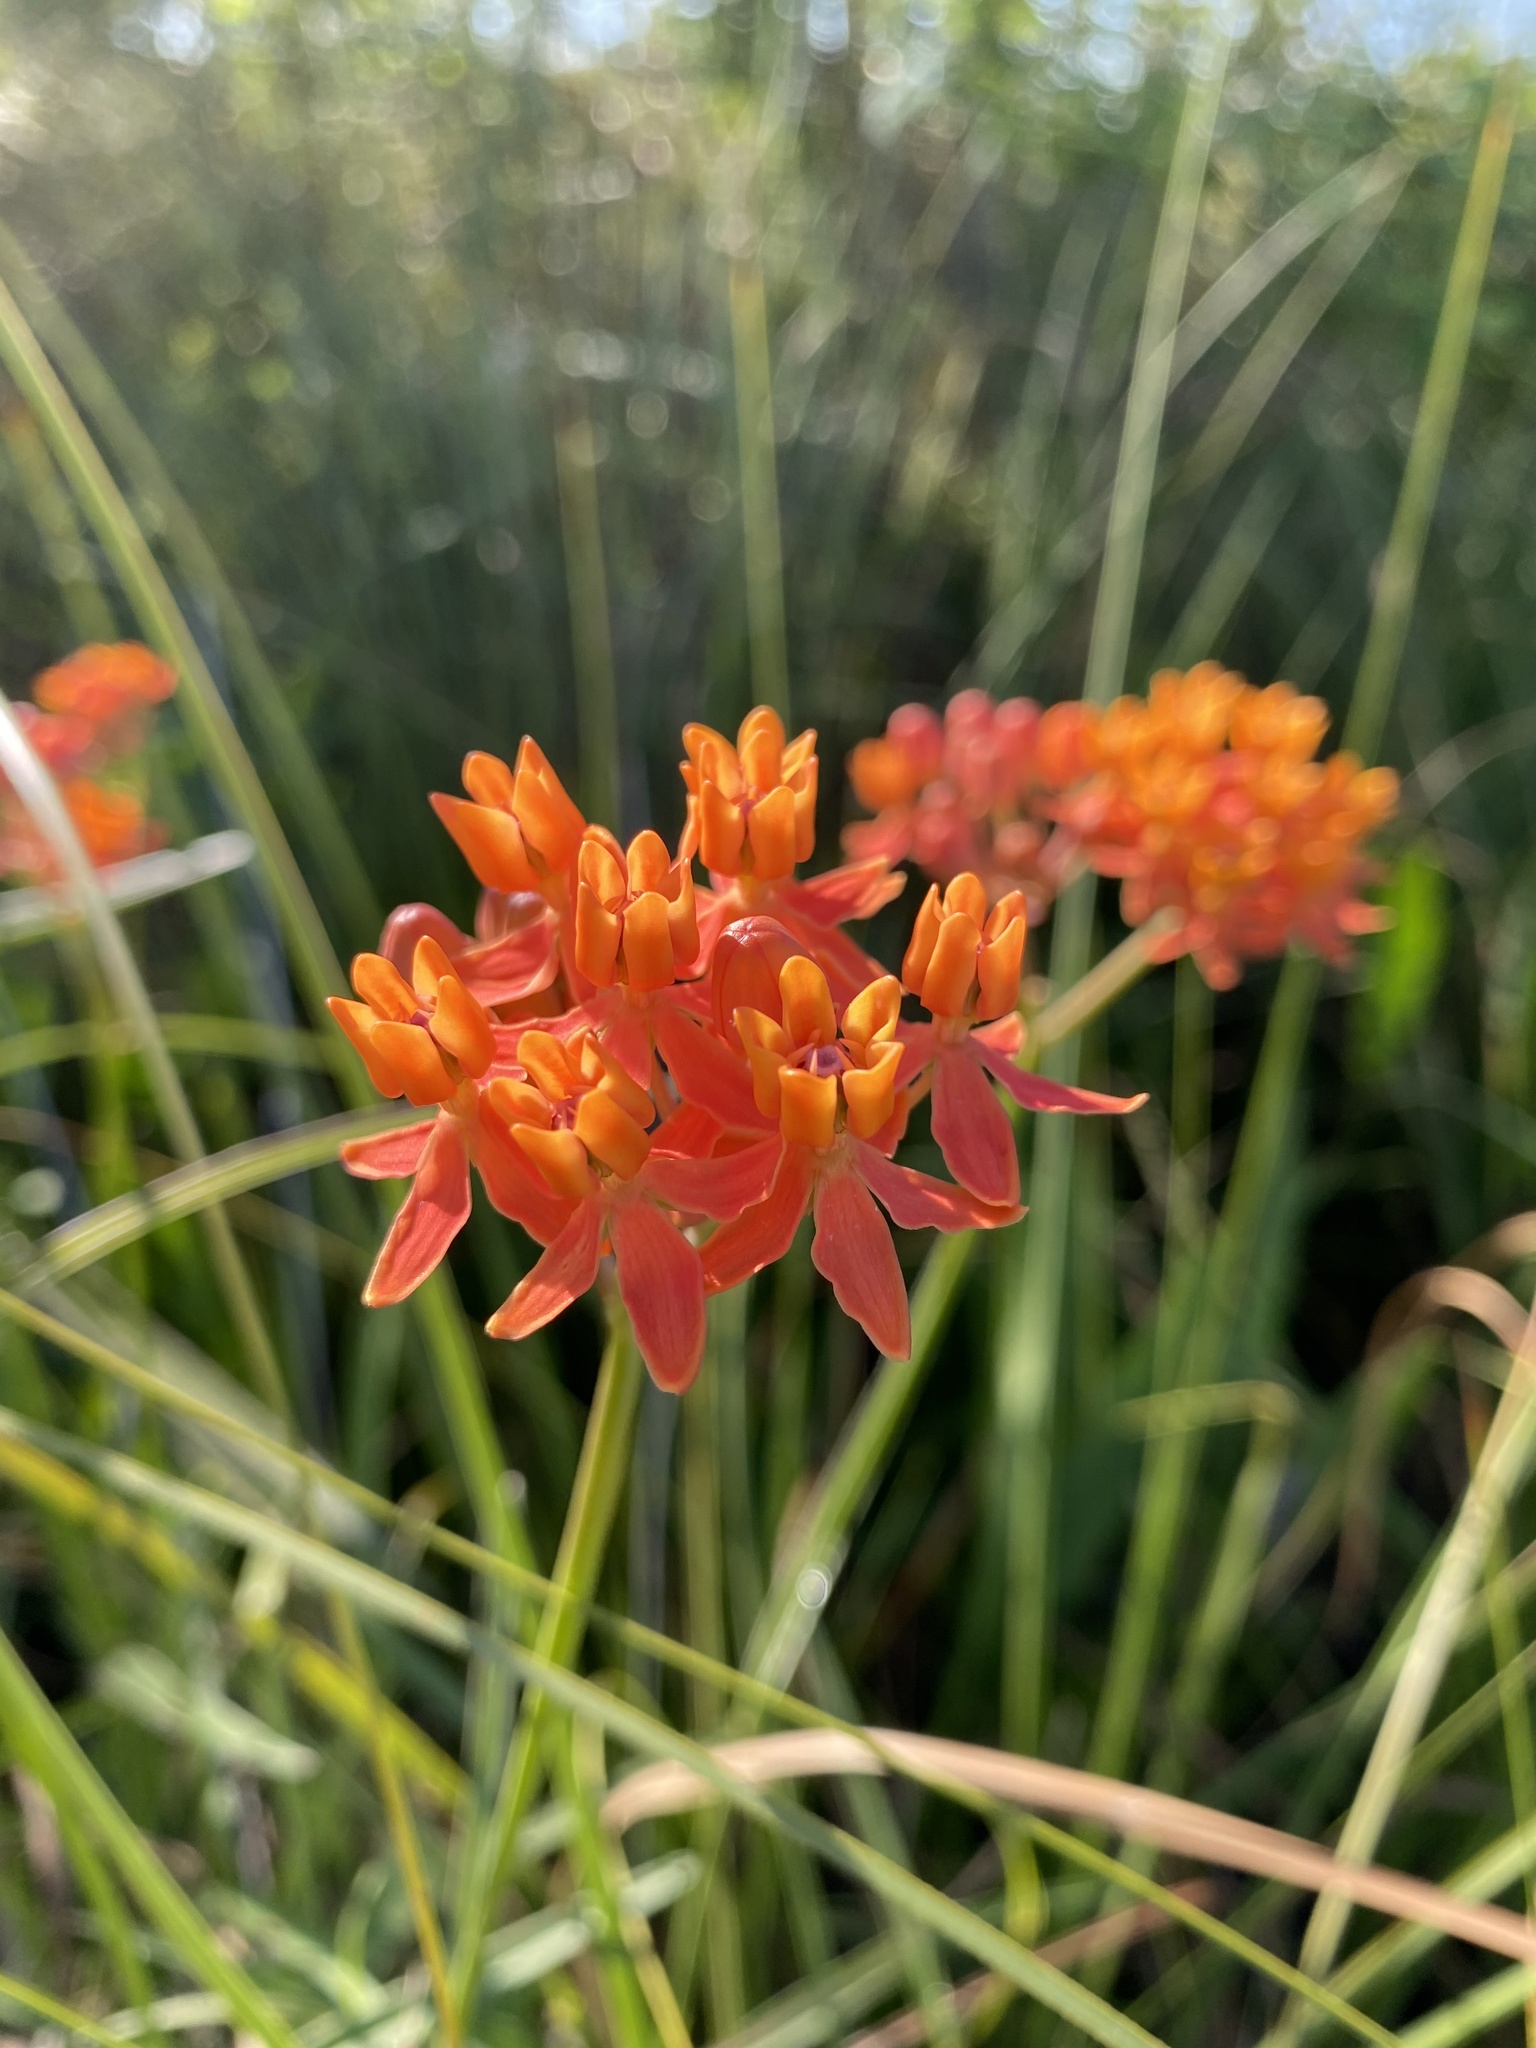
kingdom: Plantae
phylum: Tracheophyta
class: Magnoliopsida
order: Gentianales
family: Apocynaceae
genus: Asclepias
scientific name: Asclepias lanceolata
